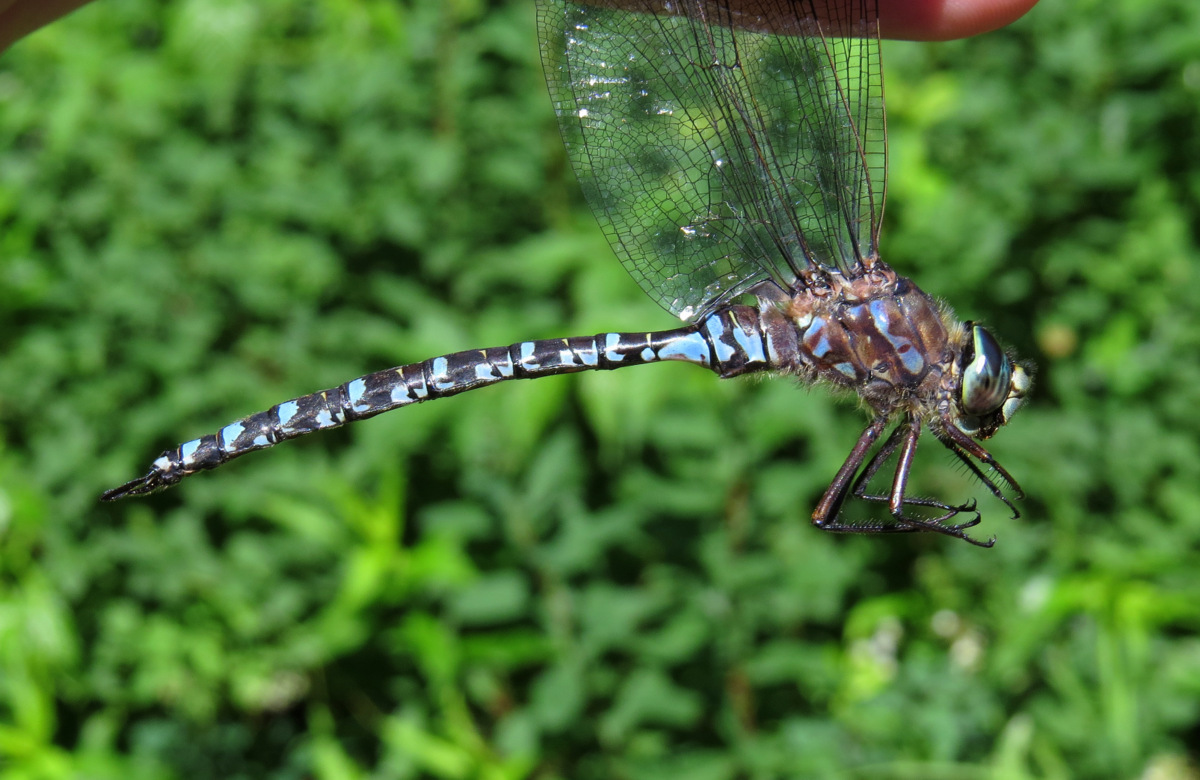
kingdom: Animalia
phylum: Arthropoda
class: Insecta
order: Odonata
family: Aeshnidae
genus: Aeshna
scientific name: Aeshna eremita
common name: Lake darner
